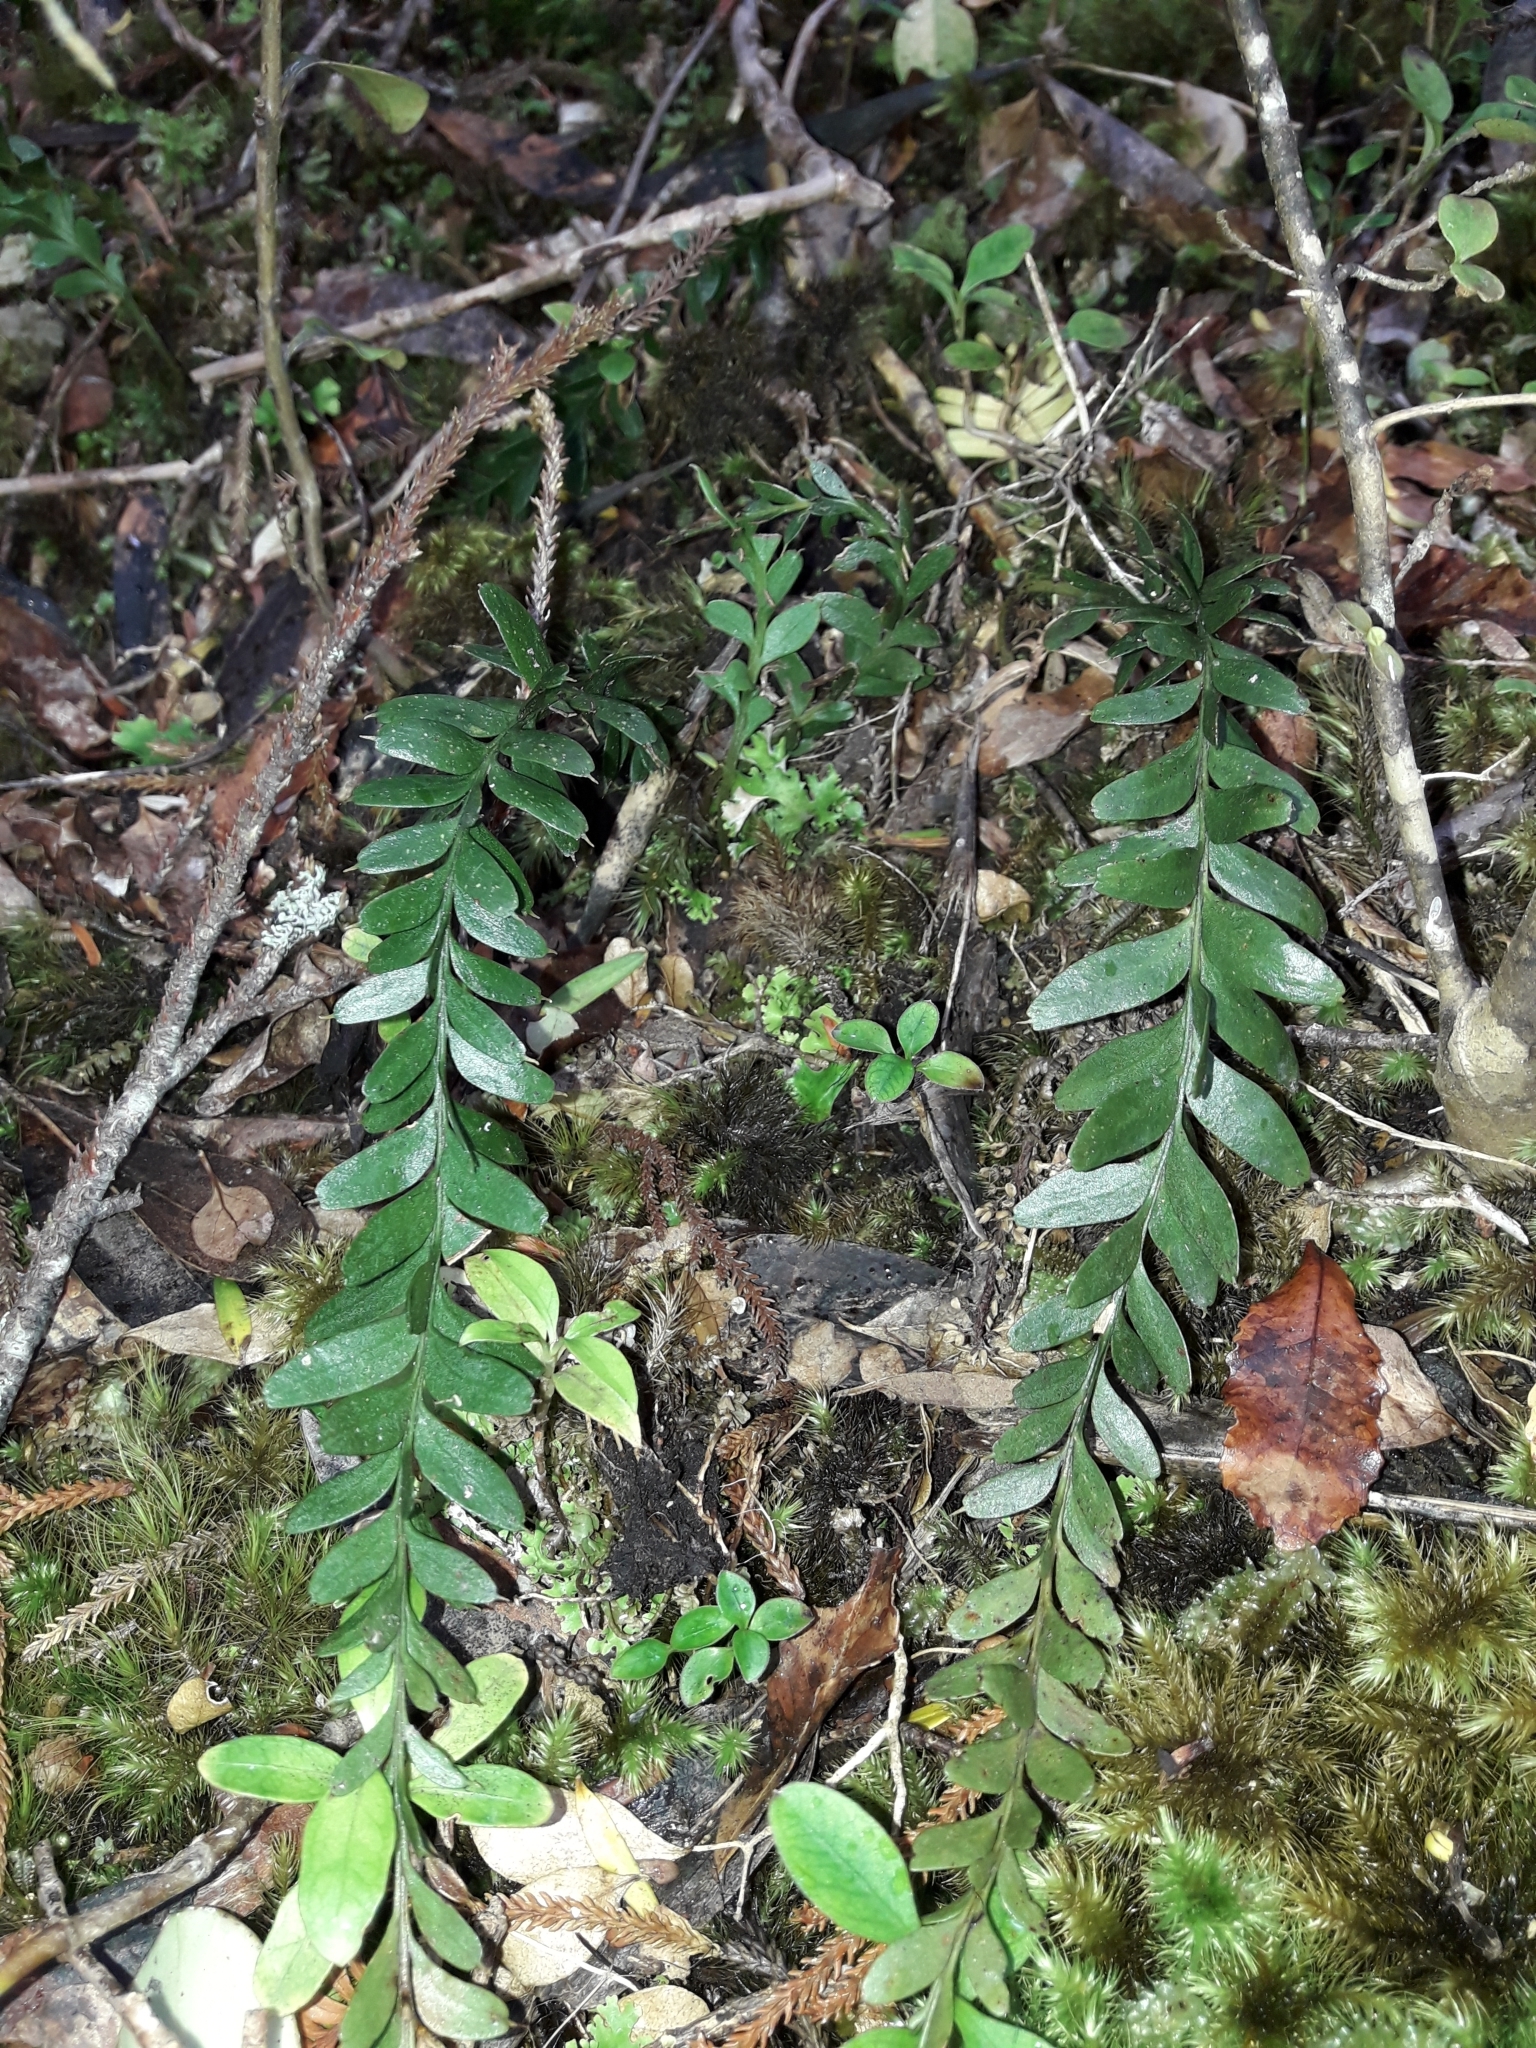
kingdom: Plantae
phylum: Tracheophyta
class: Polypodiopsida
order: Psilotales
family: Psilotaceae
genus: Tmesipteris
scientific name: Tmesipteris tannensis
